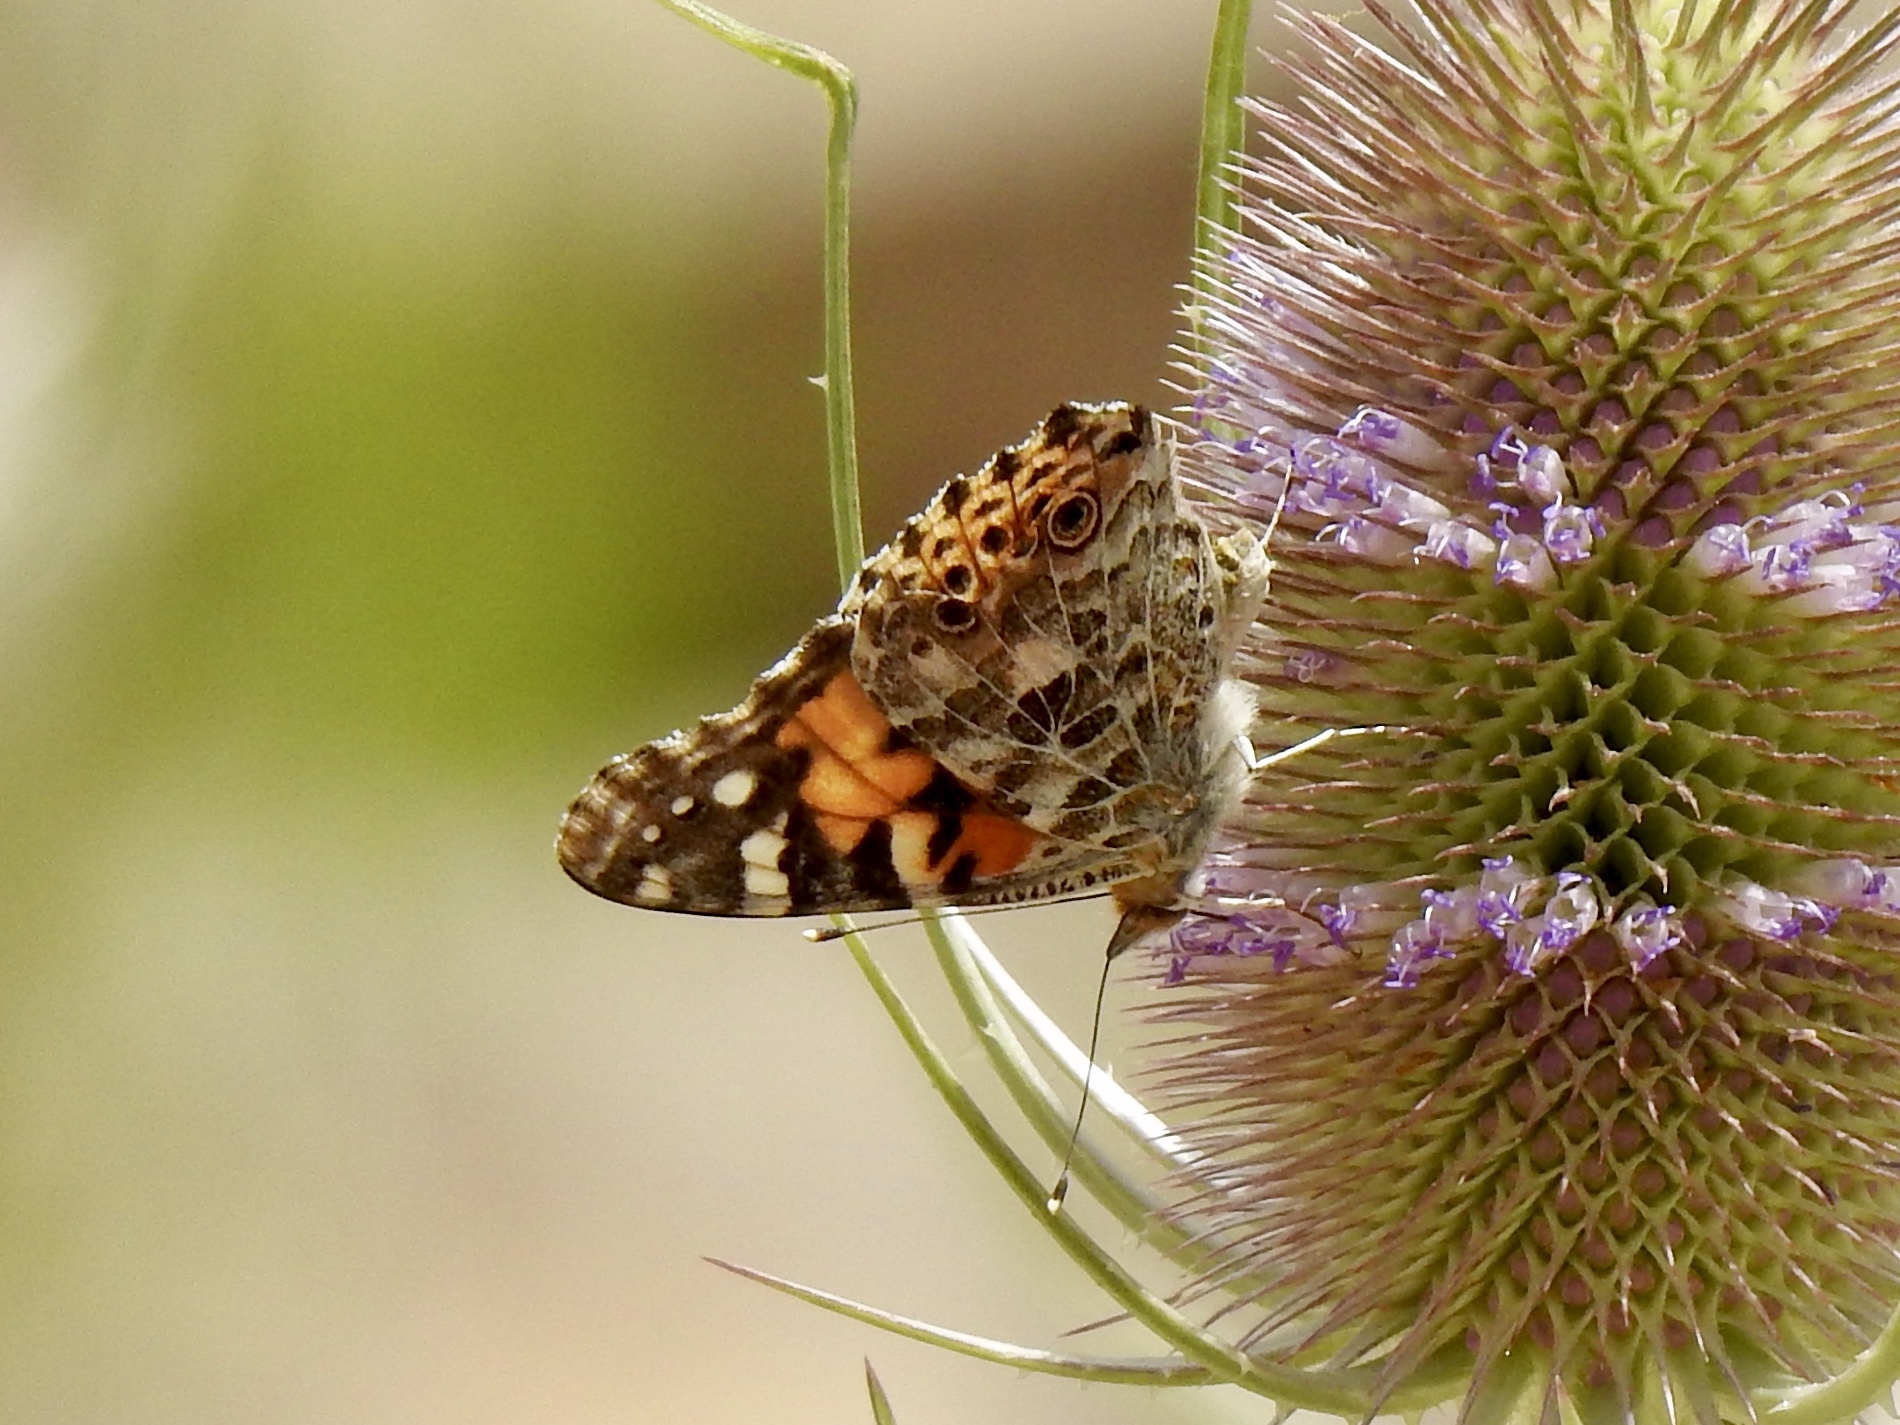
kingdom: Animalia
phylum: Arthropoda
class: Insecta
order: Lepidoptera
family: Nymphalidae
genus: Vanessa
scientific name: Vanessa cardui
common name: Painted lady
